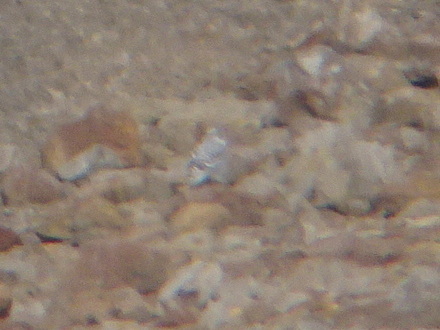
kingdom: Animalia
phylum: Chordata
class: Aves
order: Strigiformes
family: Strigidae
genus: Bubo
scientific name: Bubo scandiacus
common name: Snowy owl
